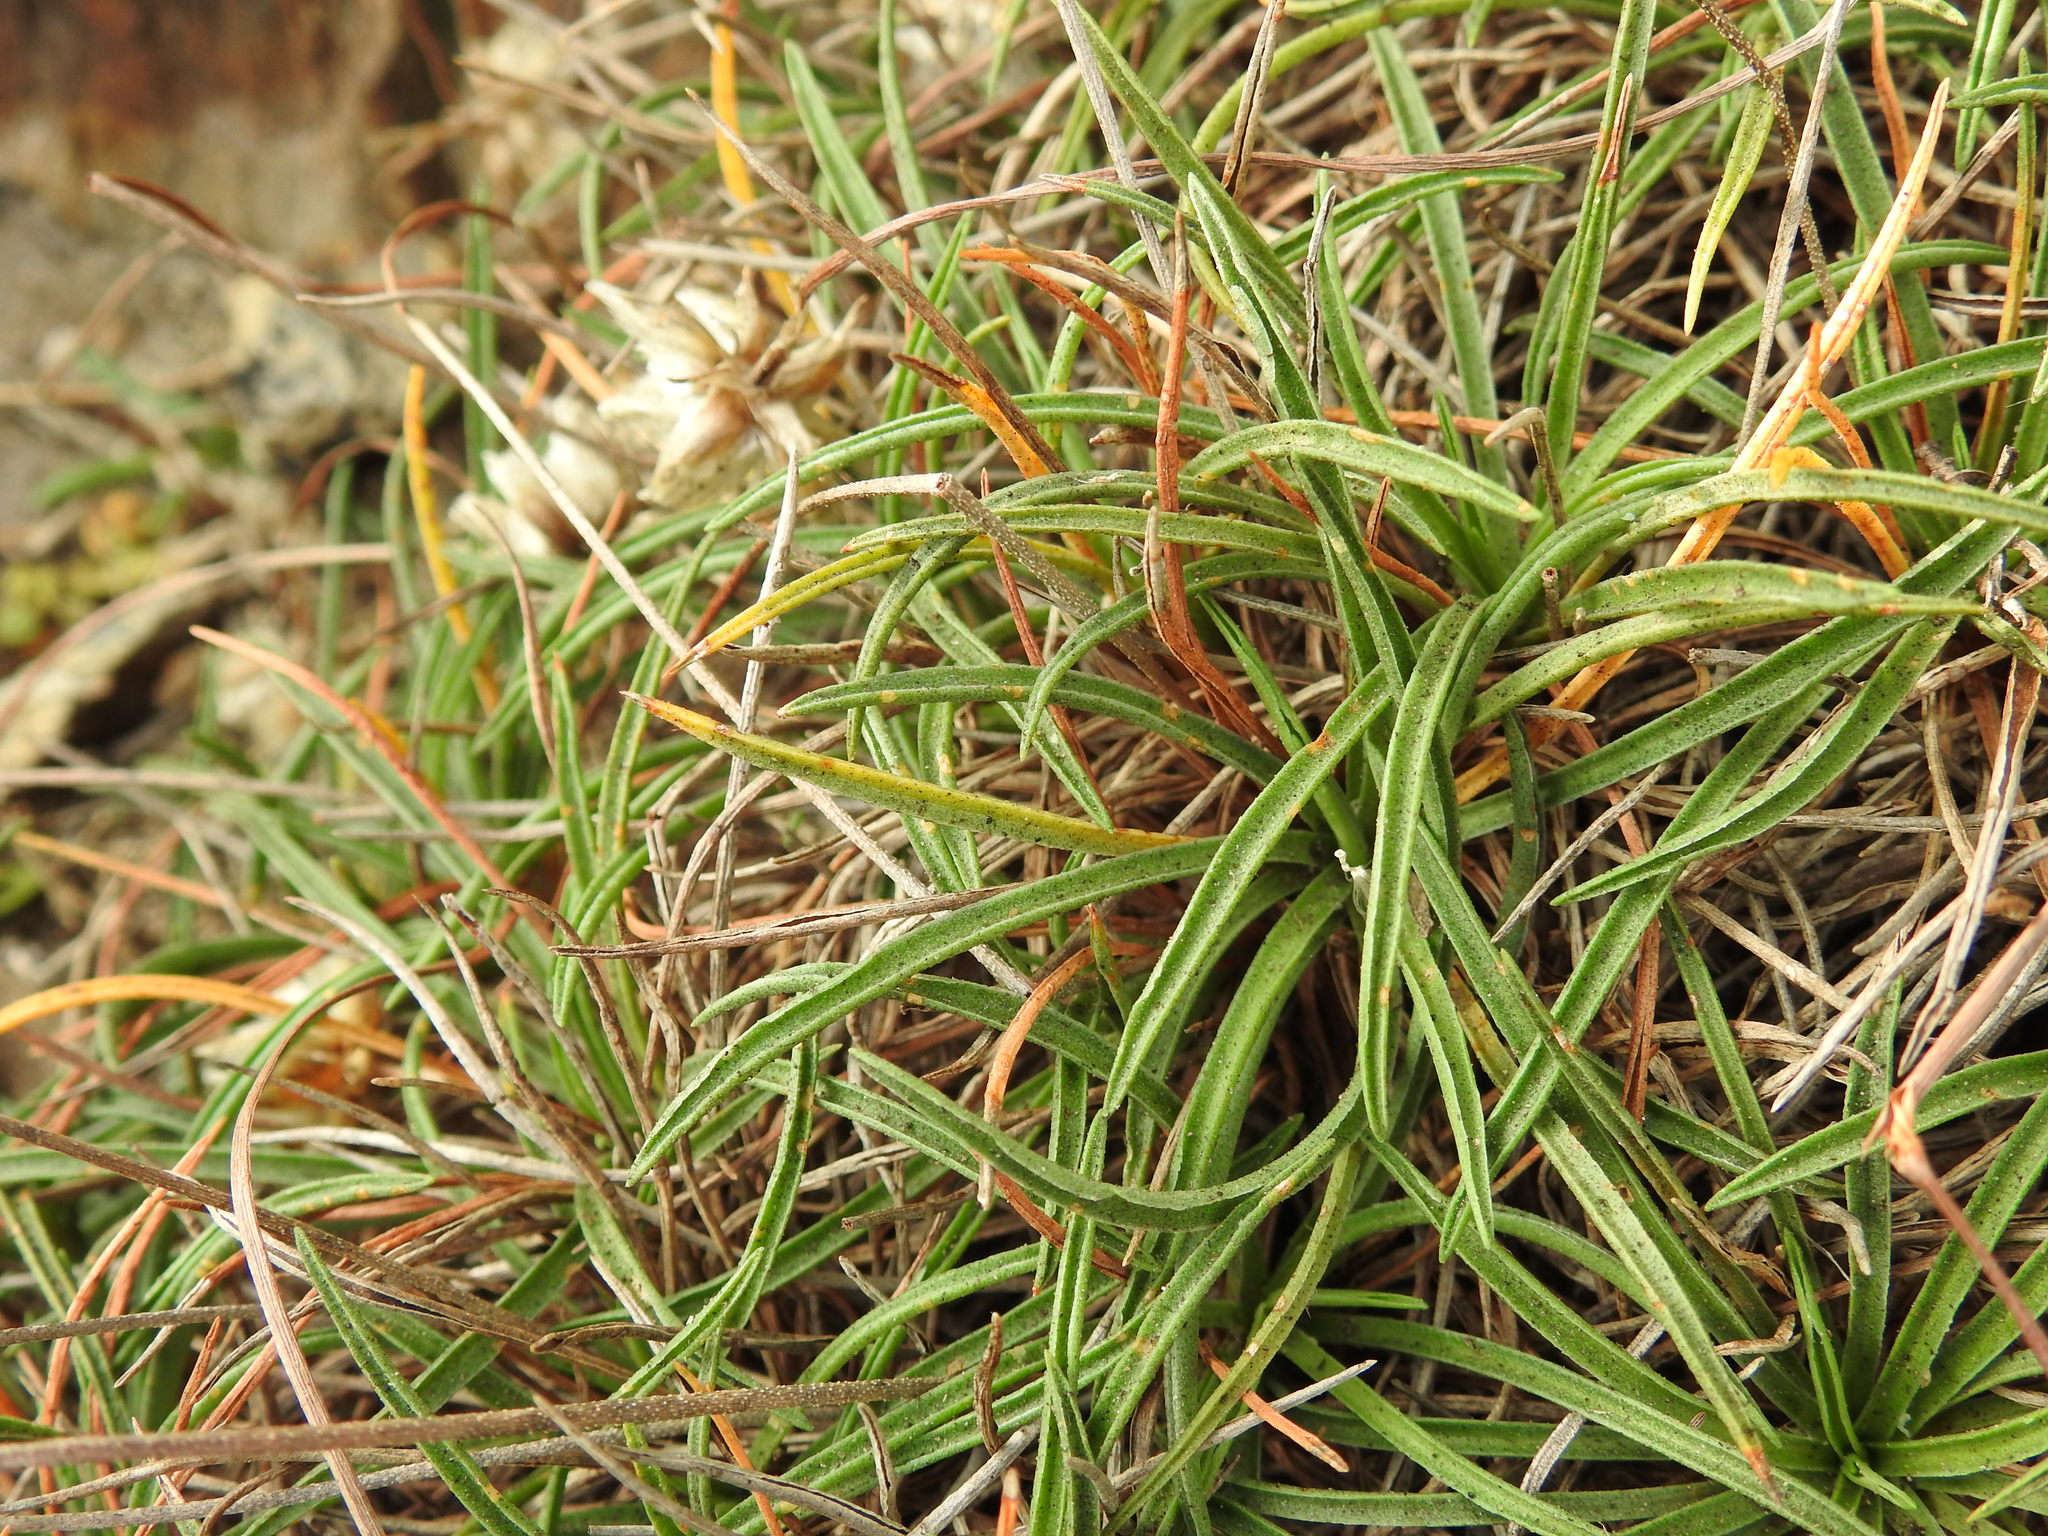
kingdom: Plantae
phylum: Tracheophyta
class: Magnoliopsida
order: Caryophyllales
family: Plumbaginaceae
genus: Armeria
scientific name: Armeria ruscinonensis
